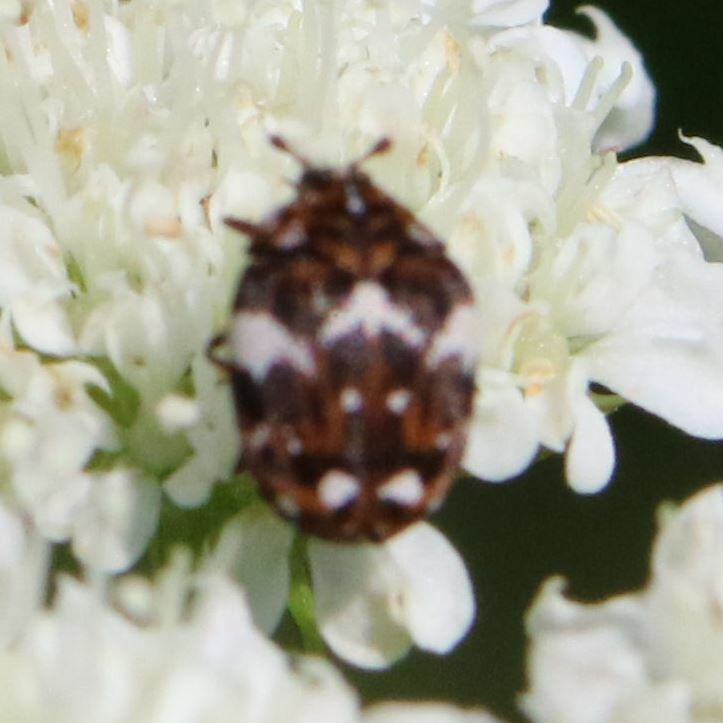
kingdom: Animalia
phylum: Arthropoda
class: Insecta
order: Coleoptera
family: Dermestidae
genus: Anthrenus
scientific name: Anthrenus angustefasciatus
